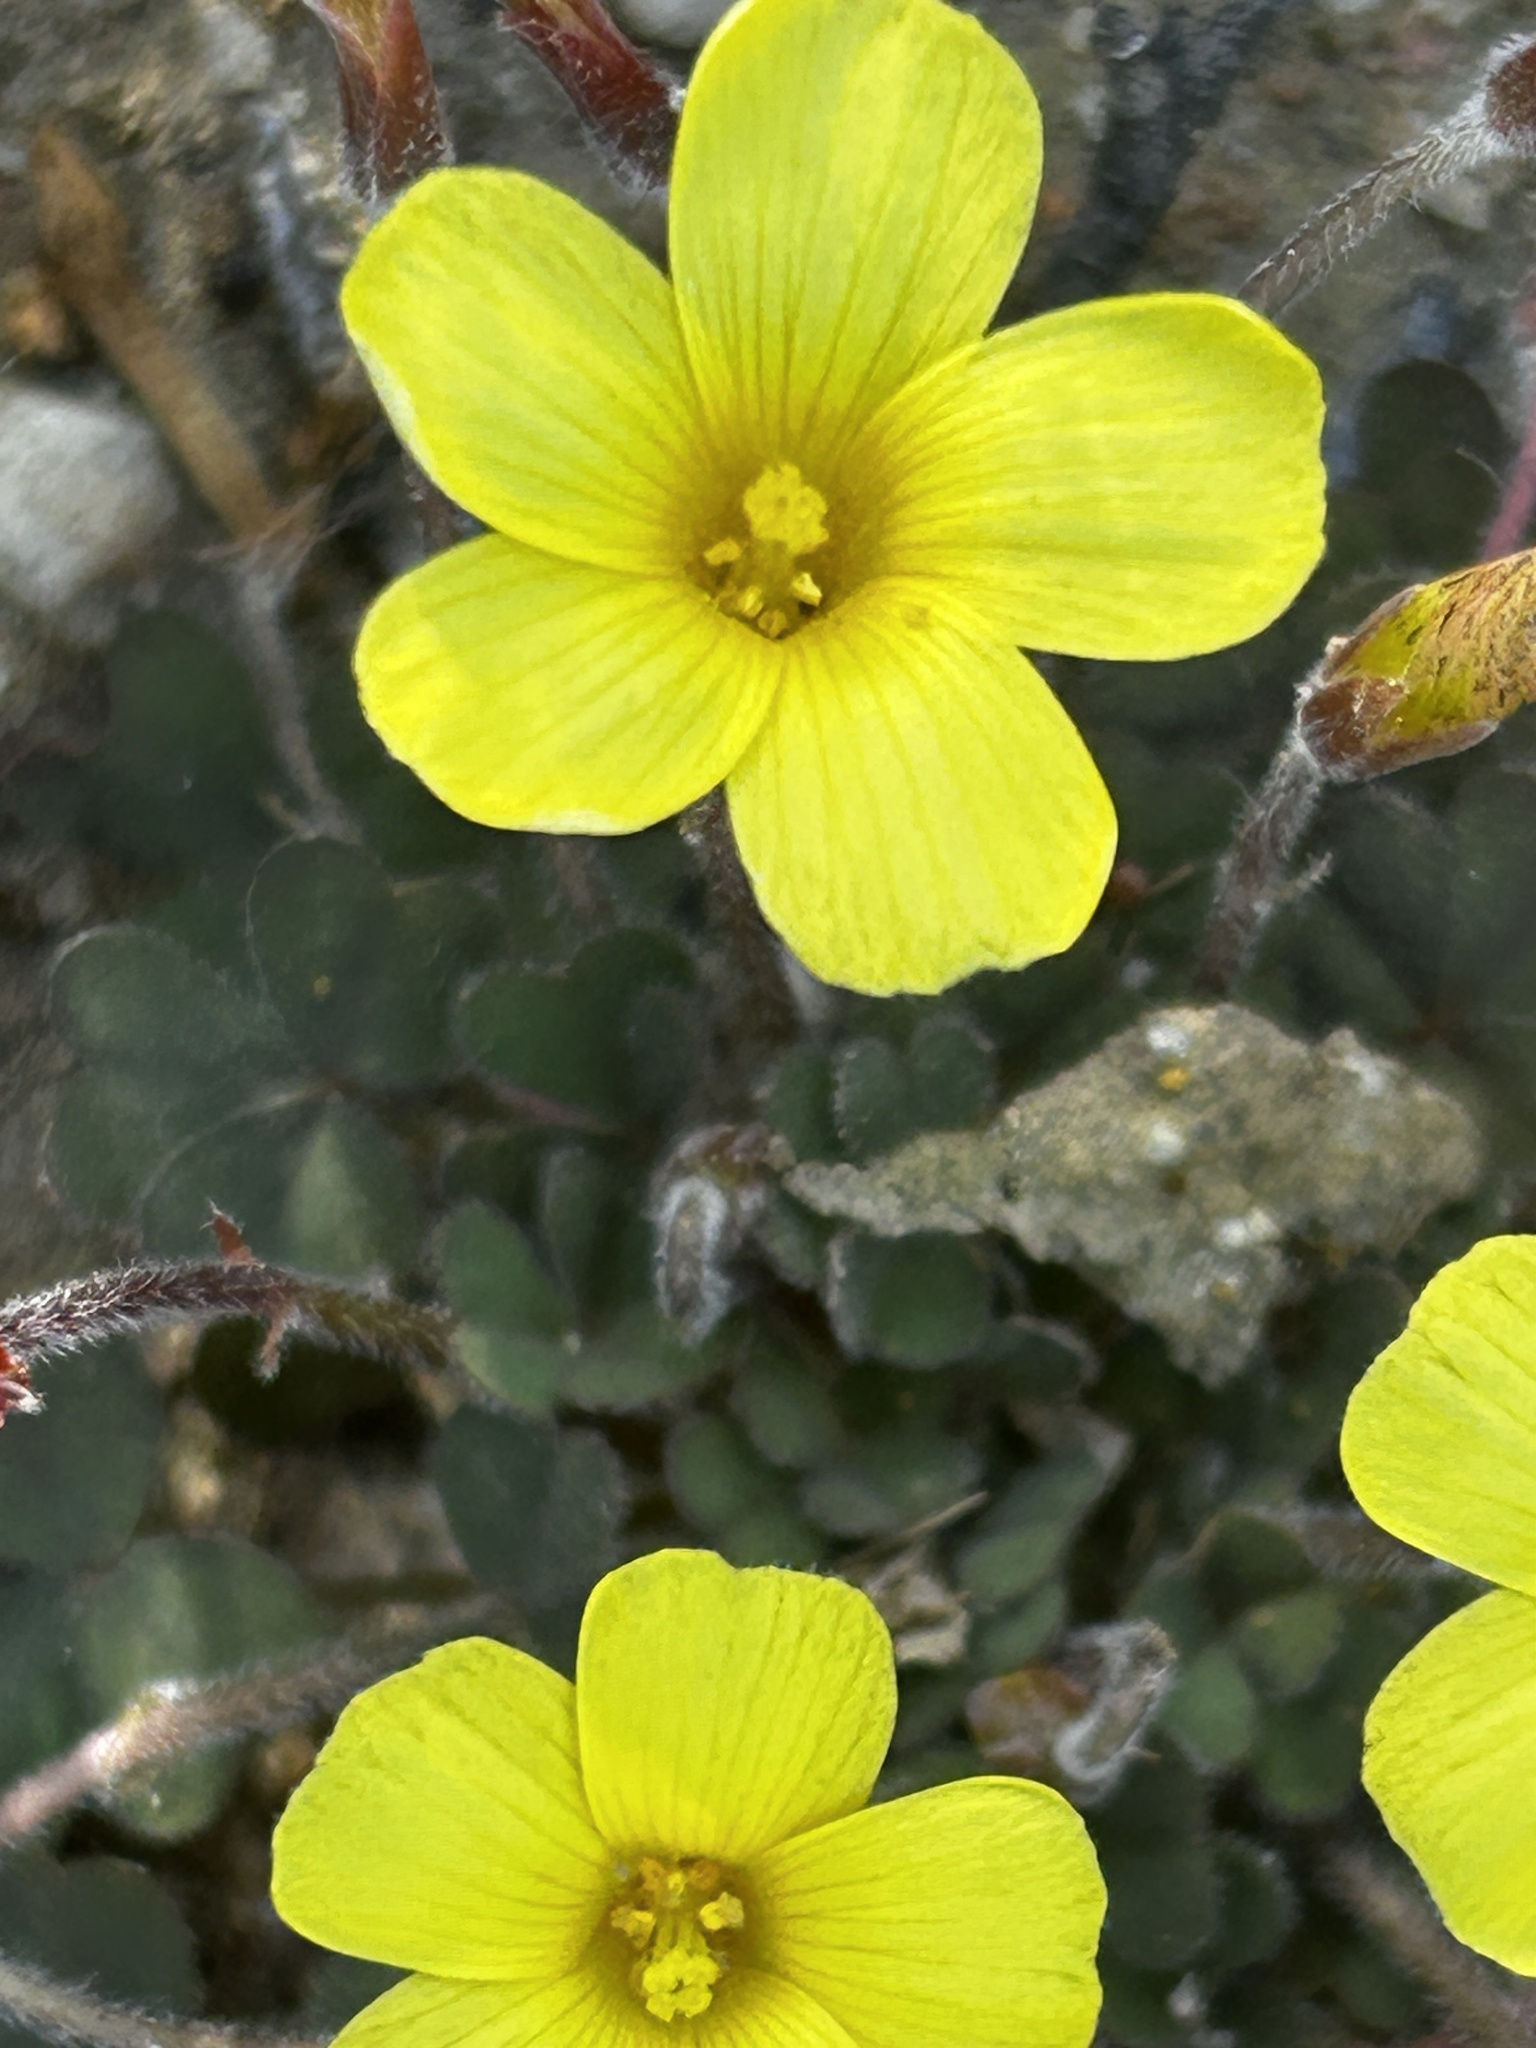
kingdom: Plantae
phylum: Tracheophyta
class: Magnoliopsida
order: Oxalidales
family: Oxalidaceae
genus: Oxalis
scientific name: Oxalis obtusa
